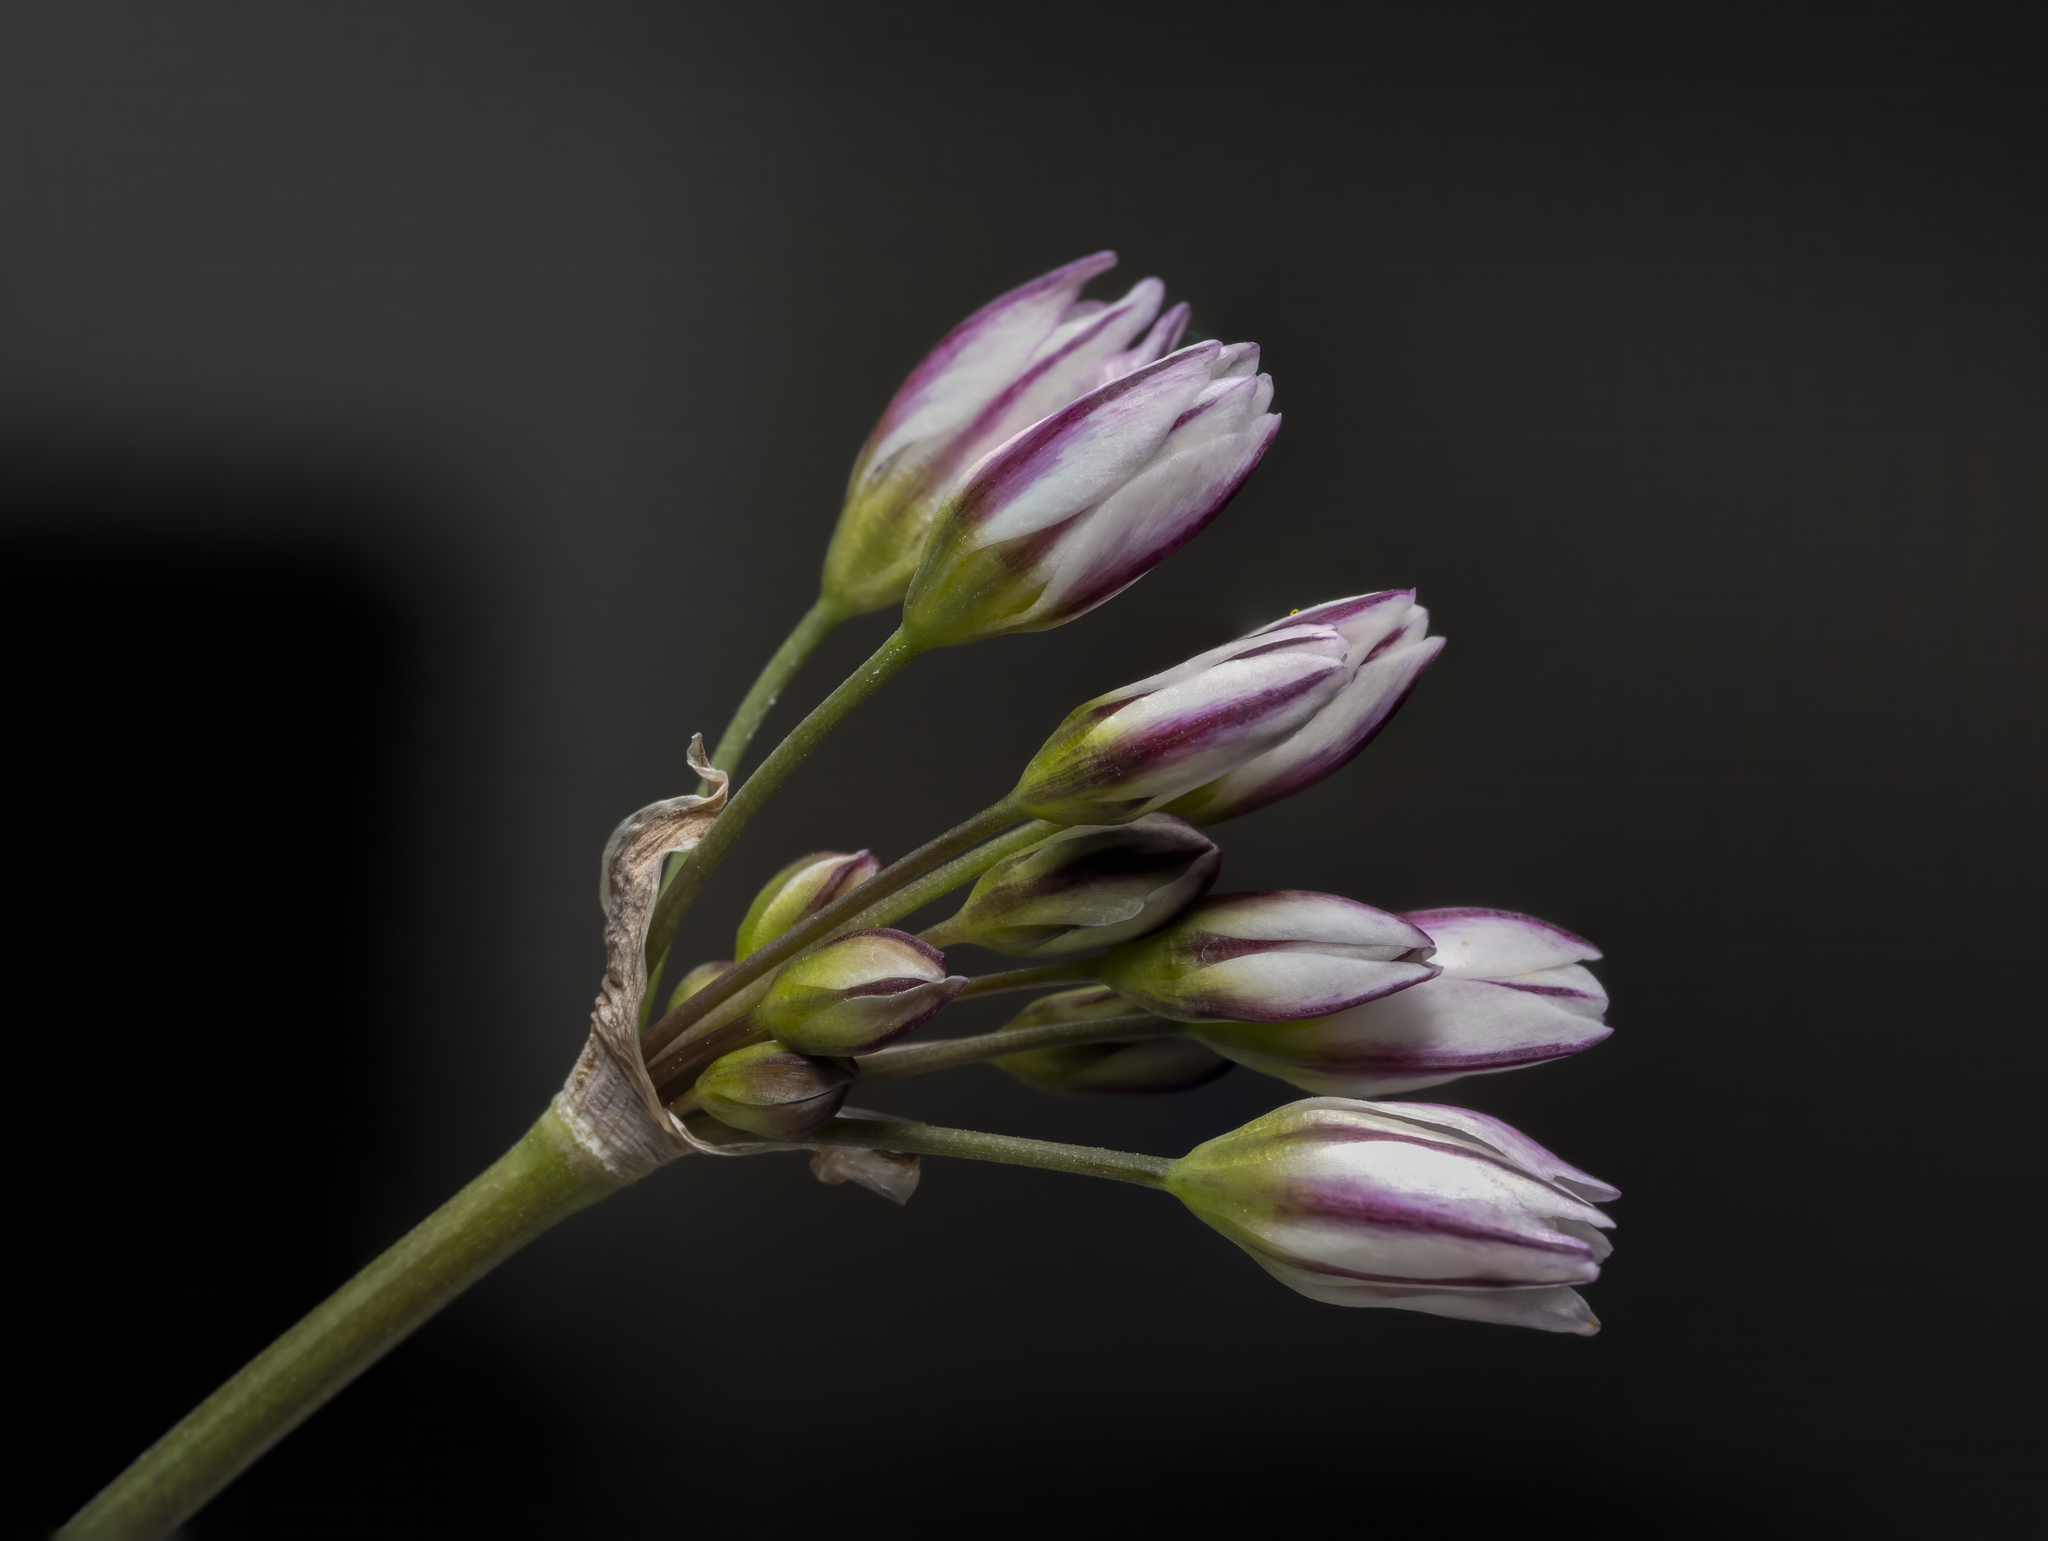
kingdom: Plantae
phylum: Tracheophyta
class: Liliopsida
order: Asparagales
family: Amaryllidaceae
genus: Nothoscordum
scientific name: Nothoscordum gracile
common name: Slender false garlic
